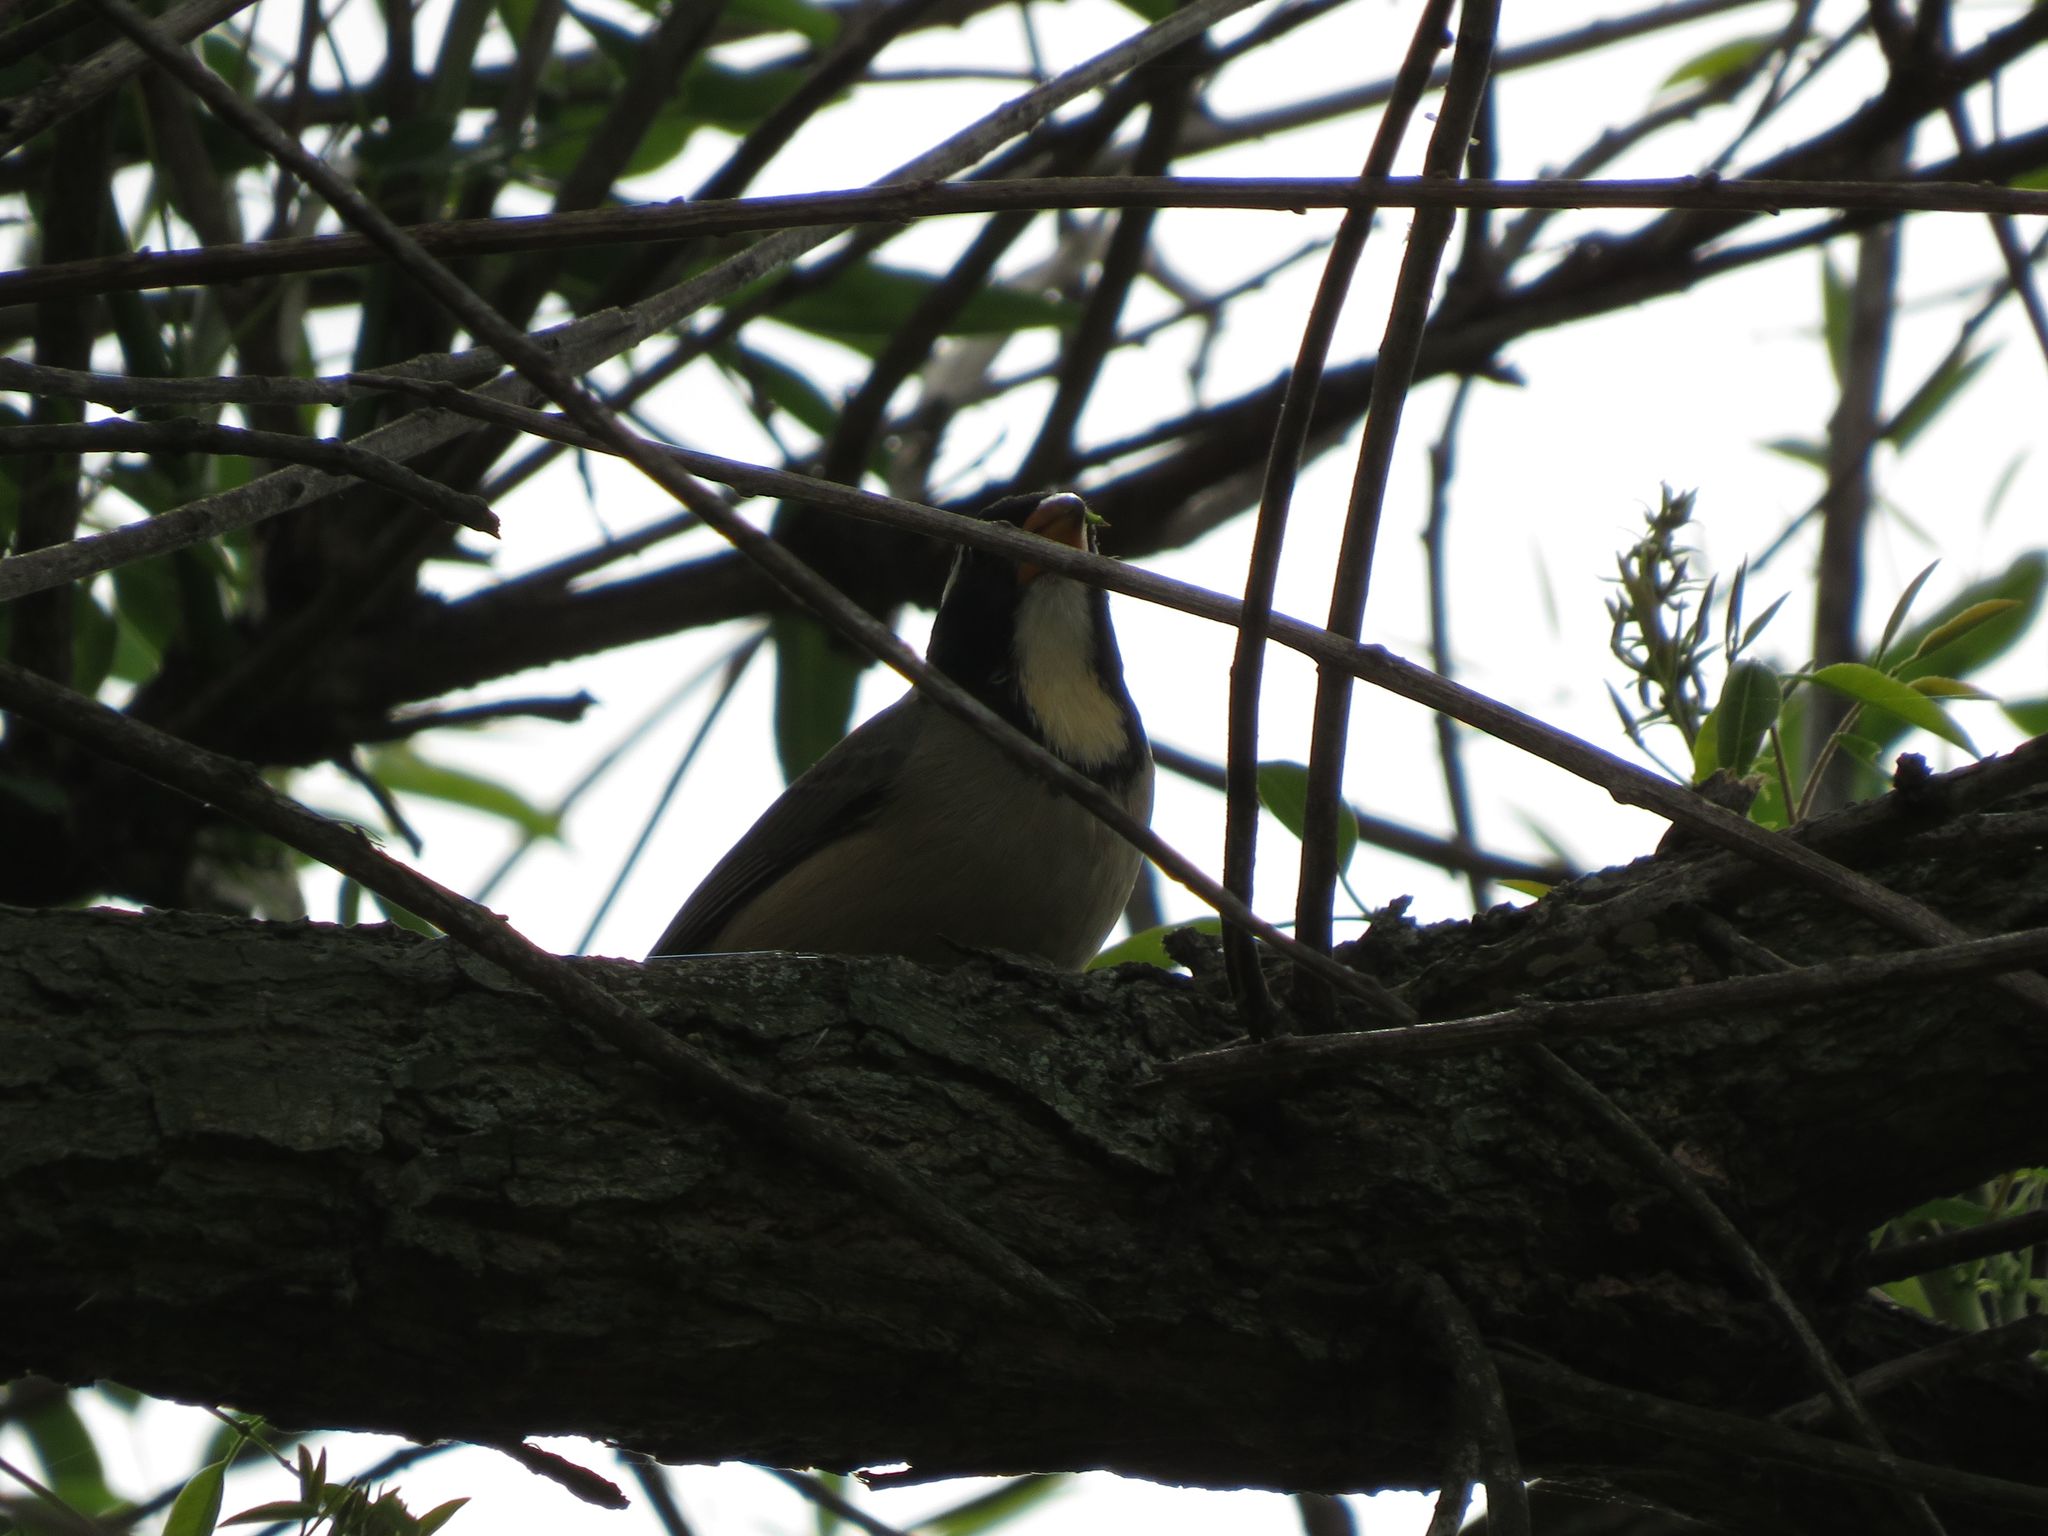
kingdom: Animalia
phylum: Chordata
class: Aves
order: Passeriformes
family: Thraupidae
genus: Saltator
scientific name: Saltator aurantiirostris
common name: Golden-billed saltator
